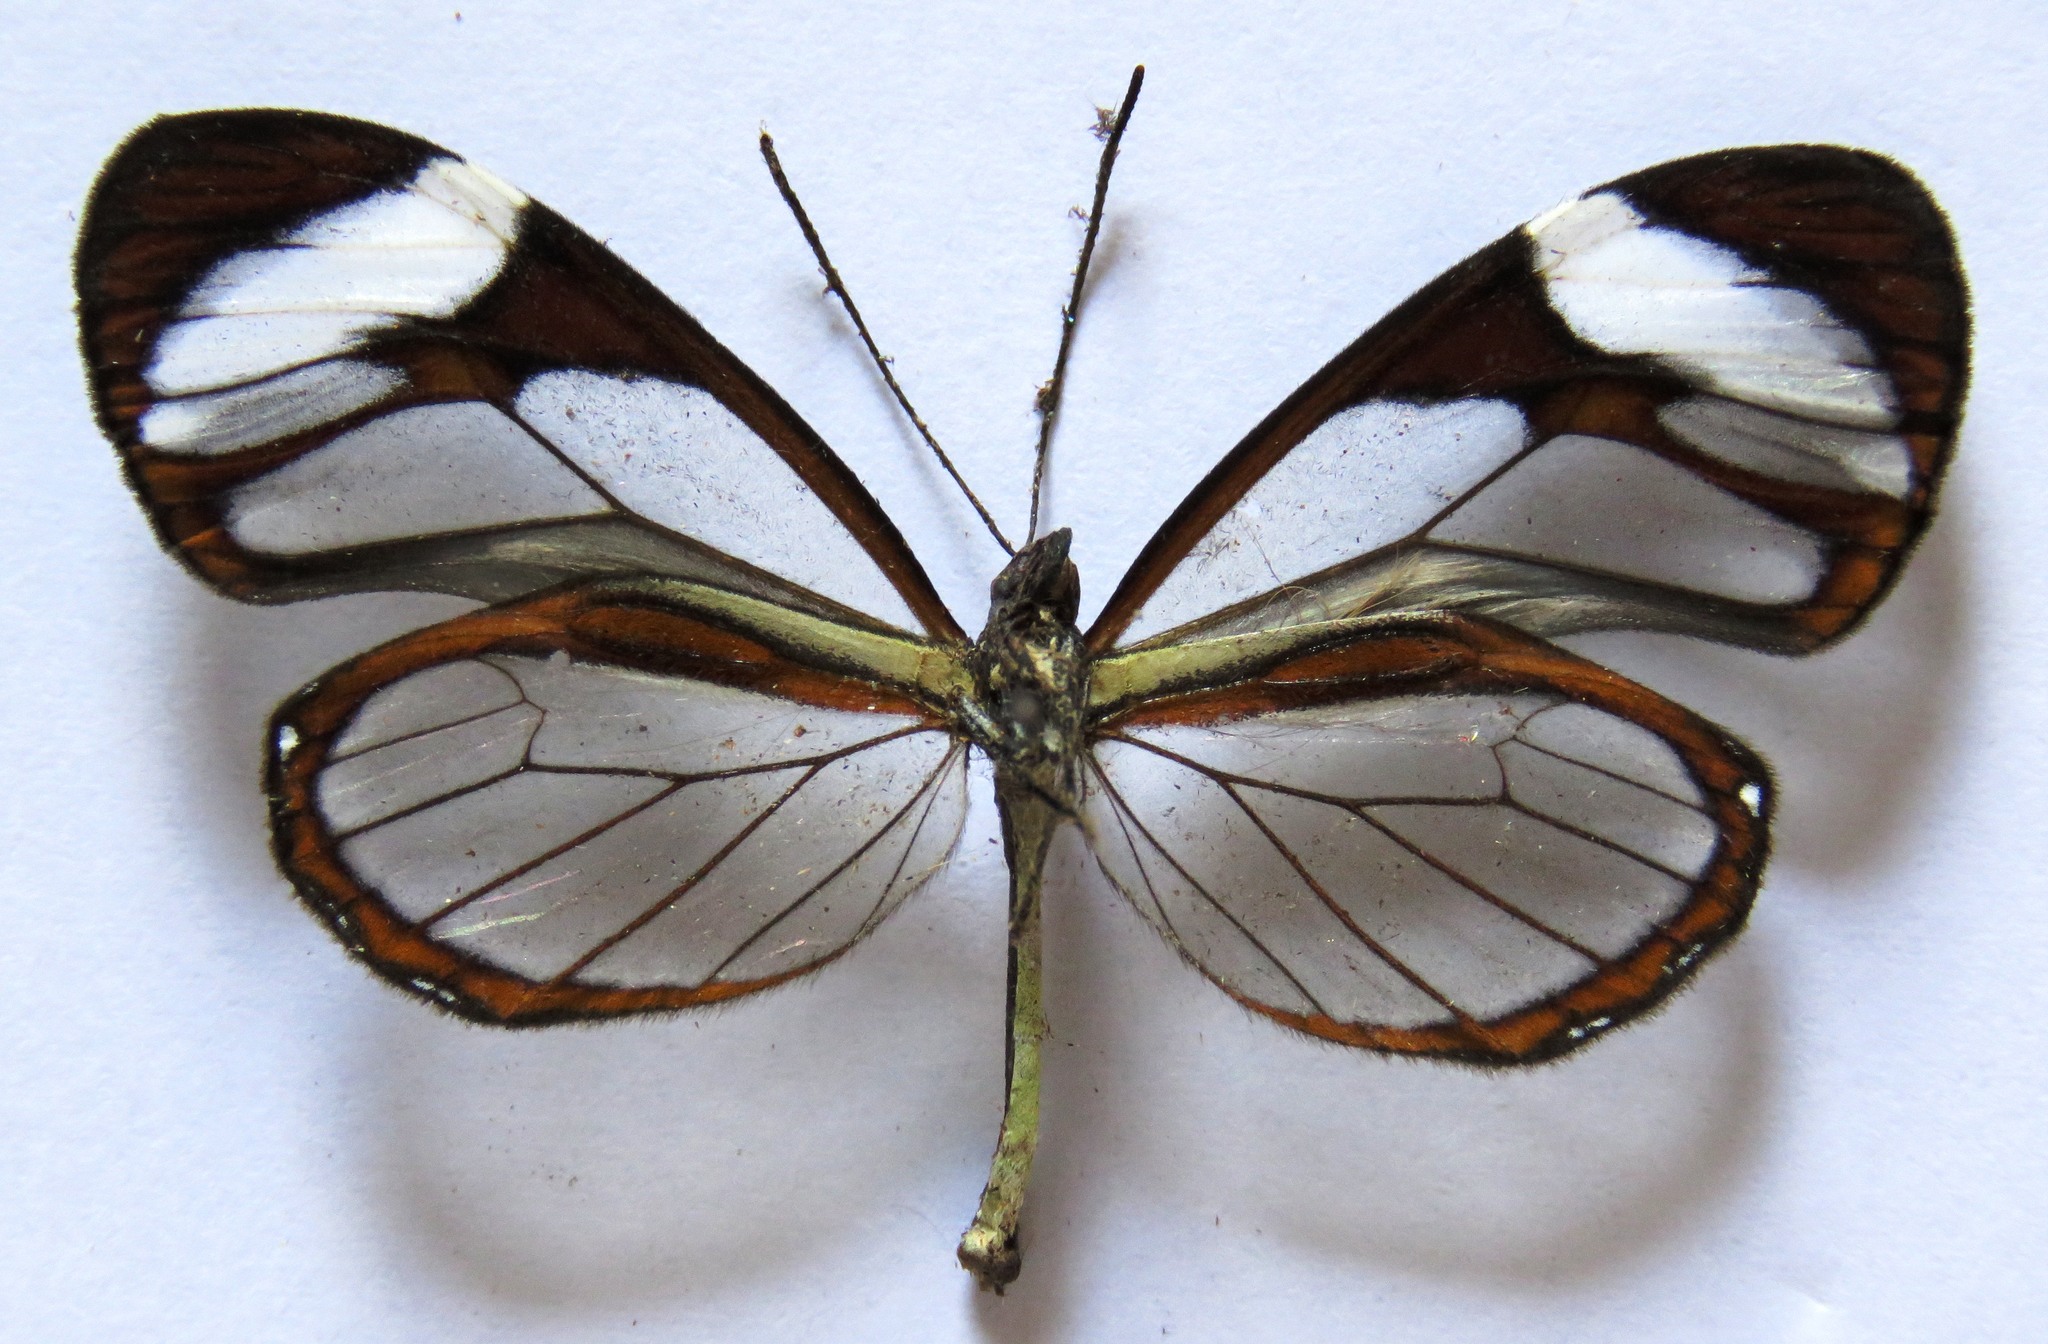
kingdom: Animalia
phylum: Arthropoda
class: Insecta
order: Lepidoptera
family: Nymphalidae
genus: Ithomia
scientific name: Ithomia patilla
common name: Patilla clearwing
